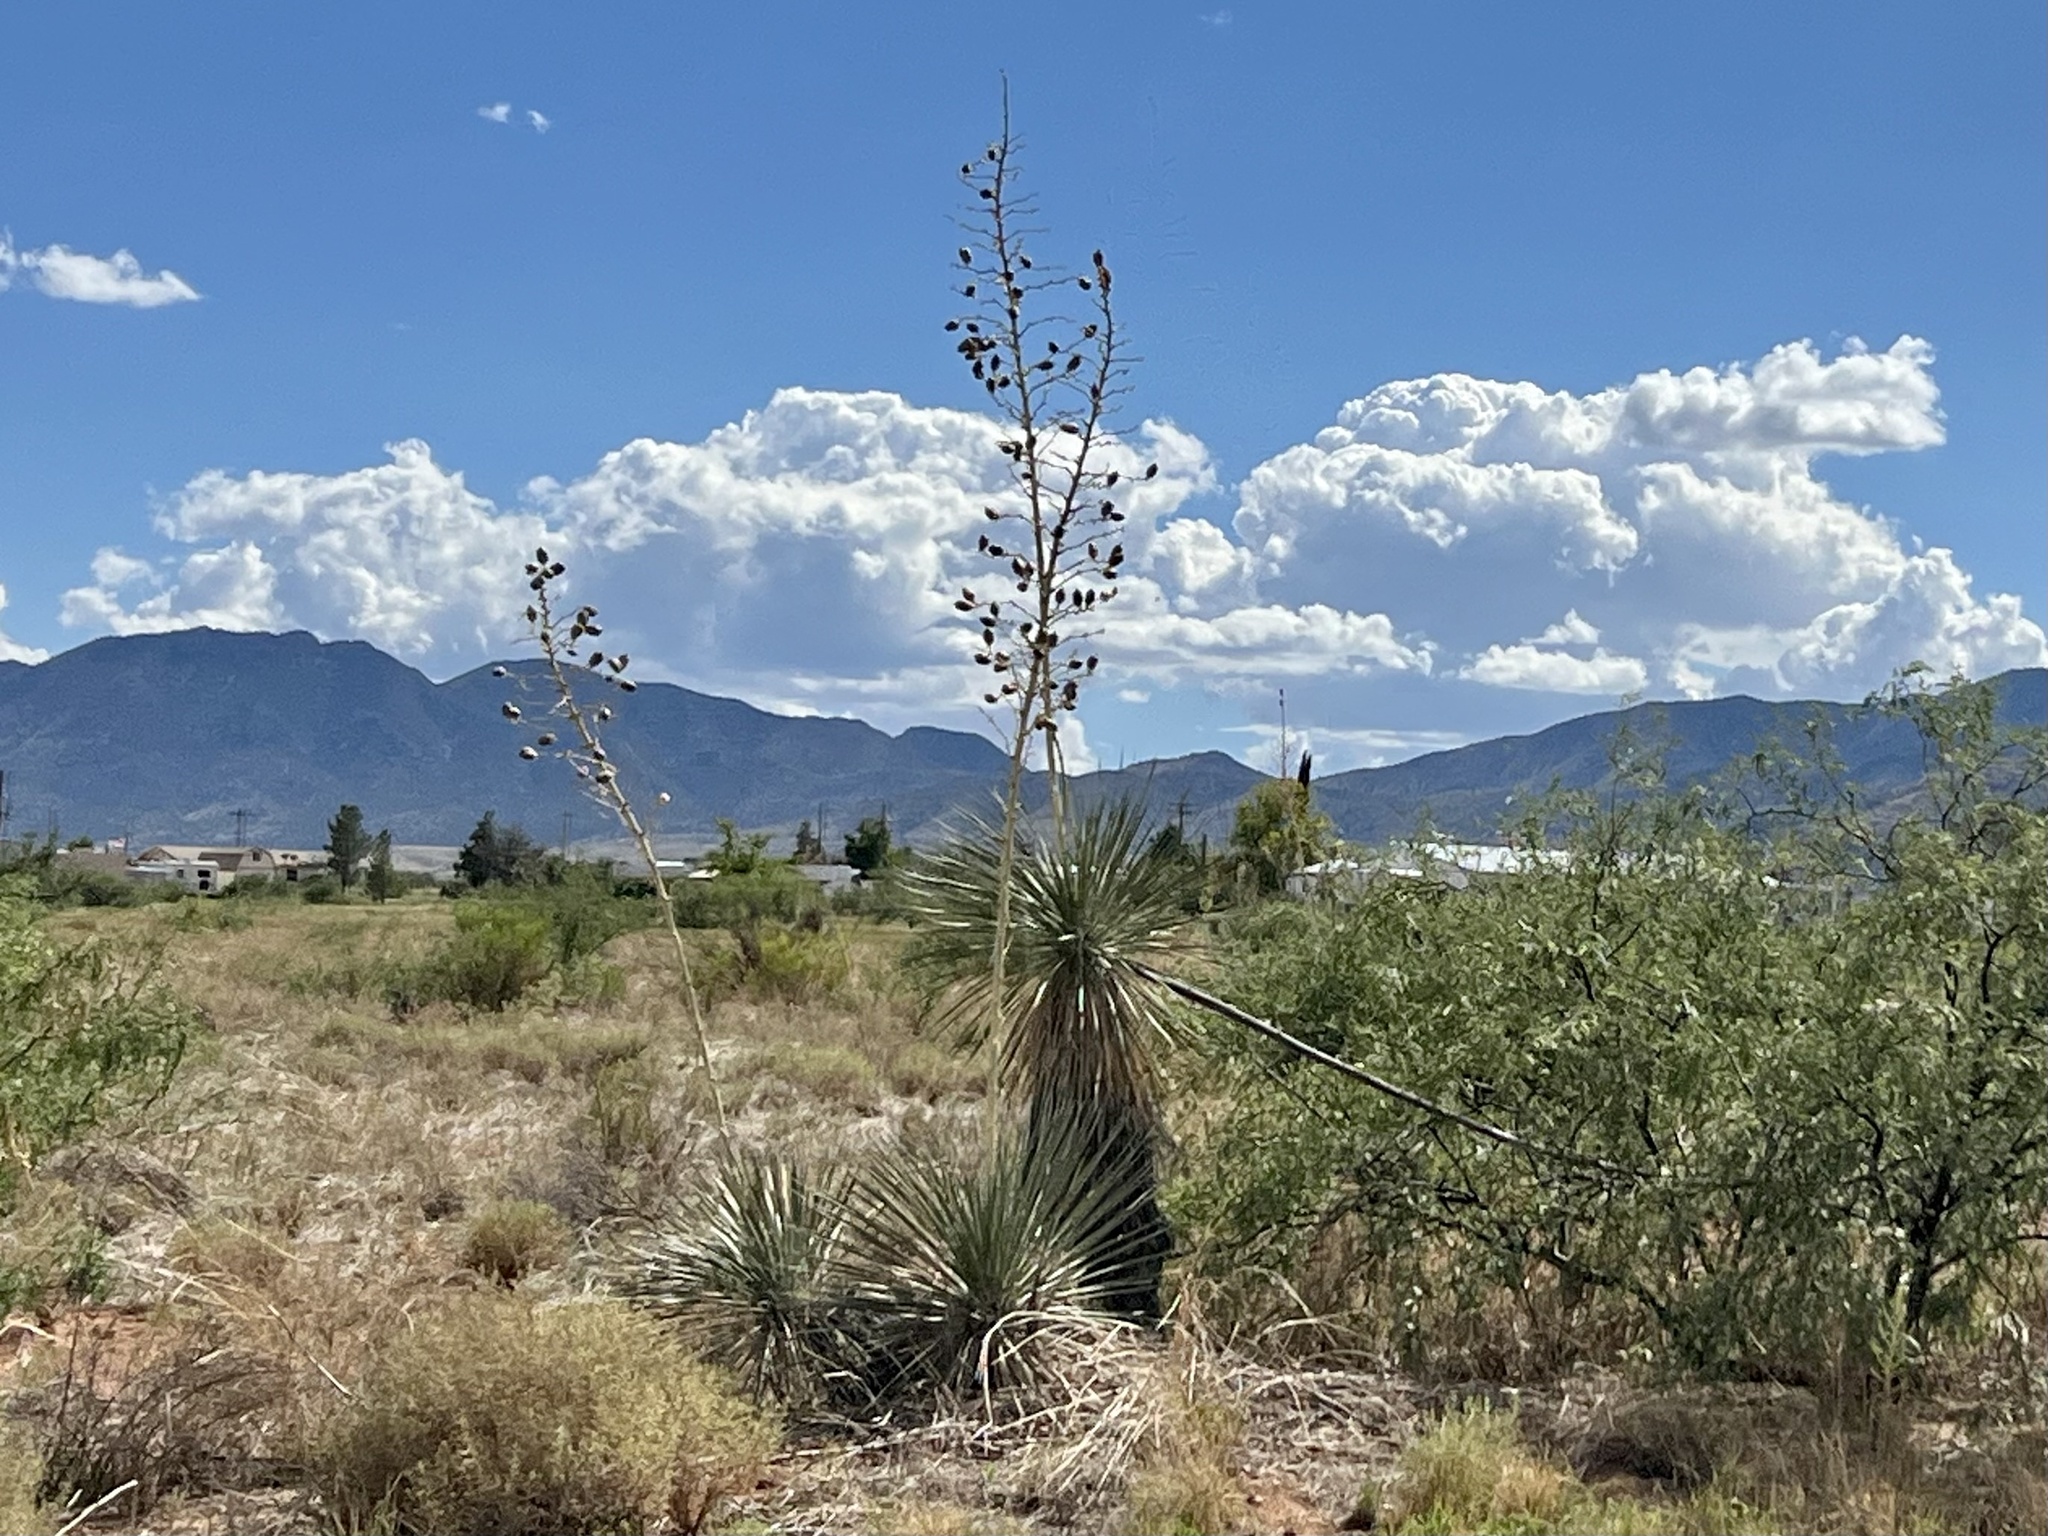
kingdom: Plantae
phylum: Tracheophyta
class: Liliopsida
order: Asparagales
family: Asparagaceae
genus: Yucca
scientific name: Yucca elata
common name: Palmella
